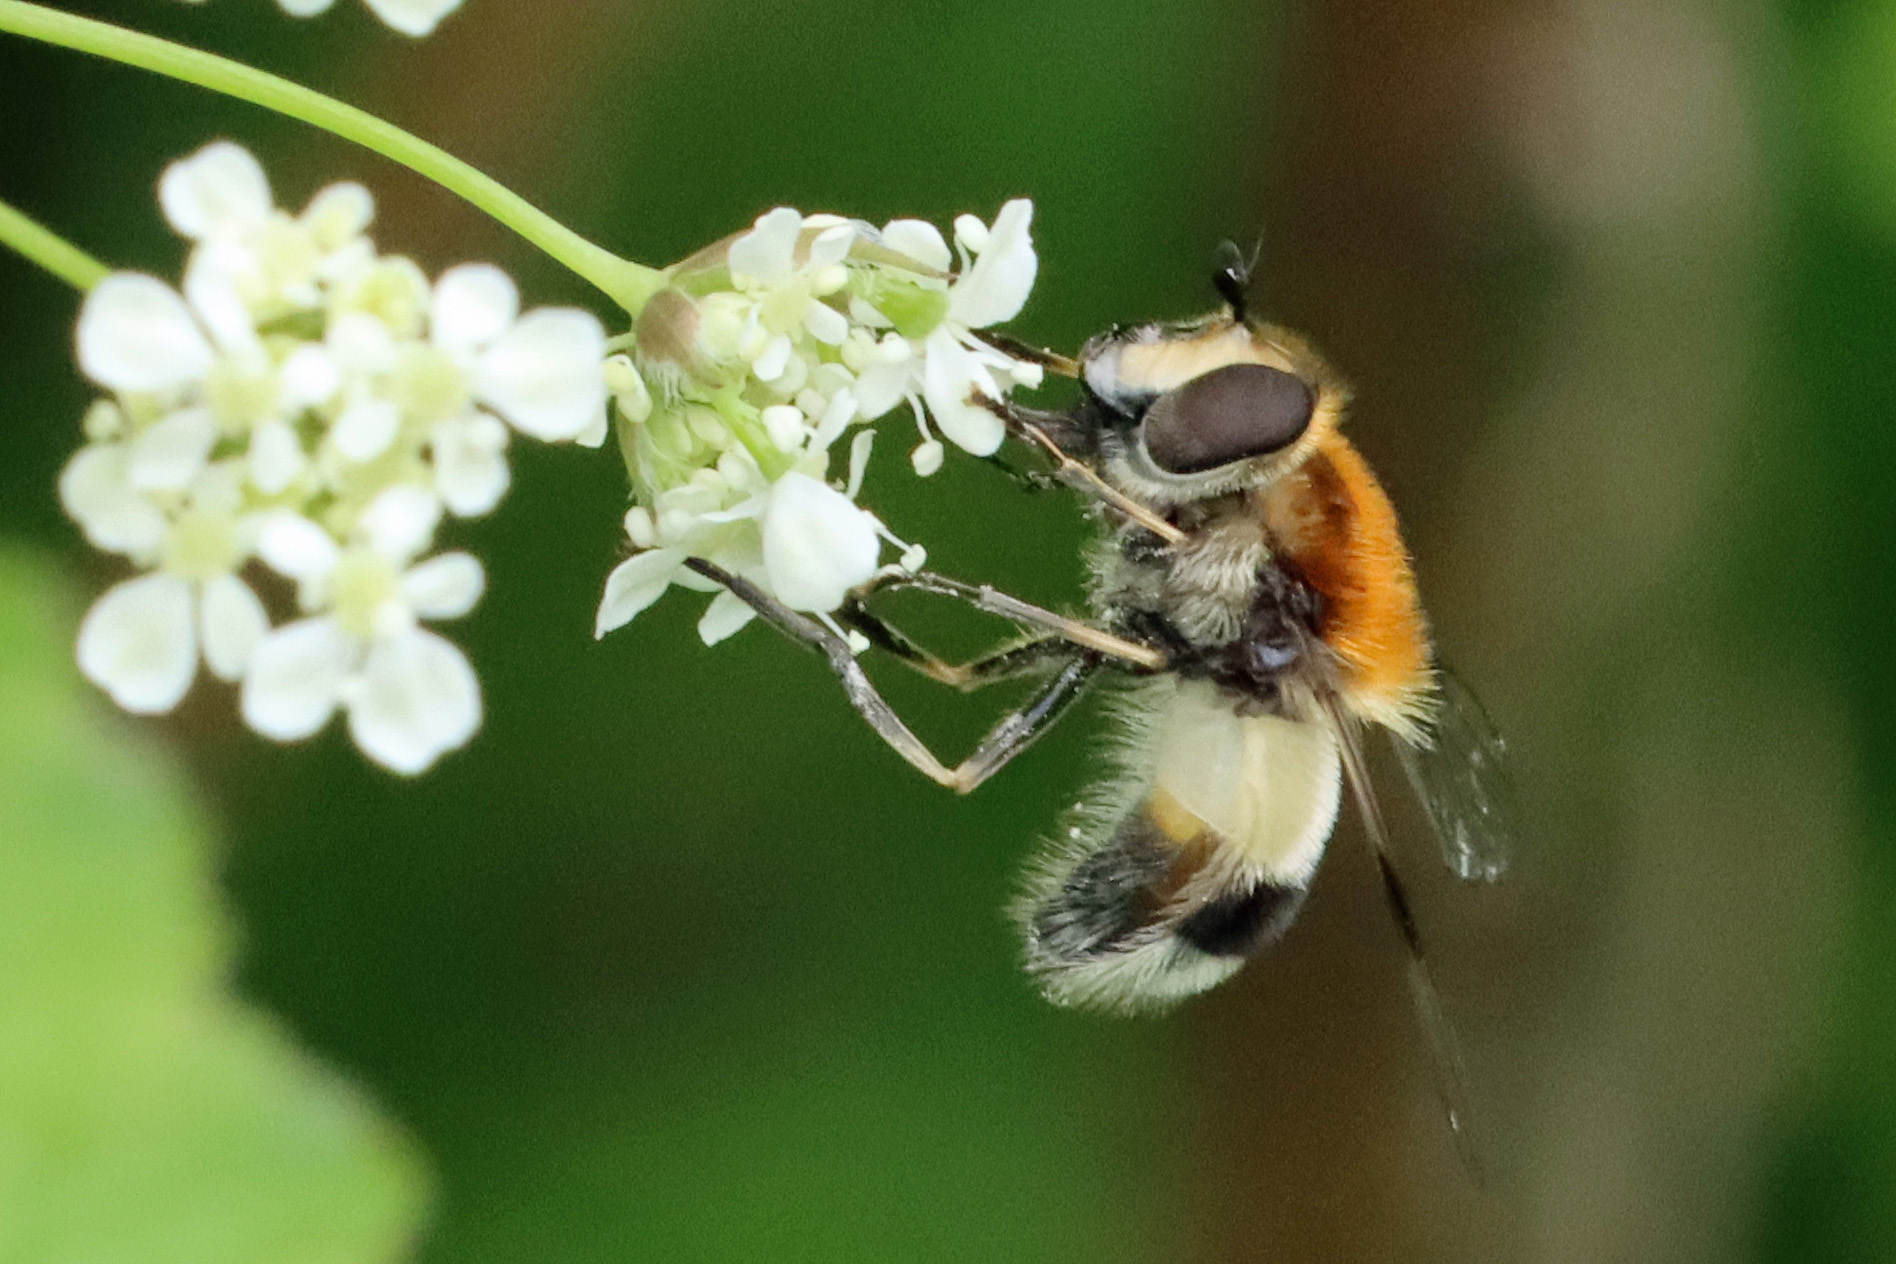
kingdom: Animalia
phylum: Arthropoda
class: Insecta
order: Diptera
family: Syrphidae
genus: Leucozona
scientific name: Leucozona lucorum
